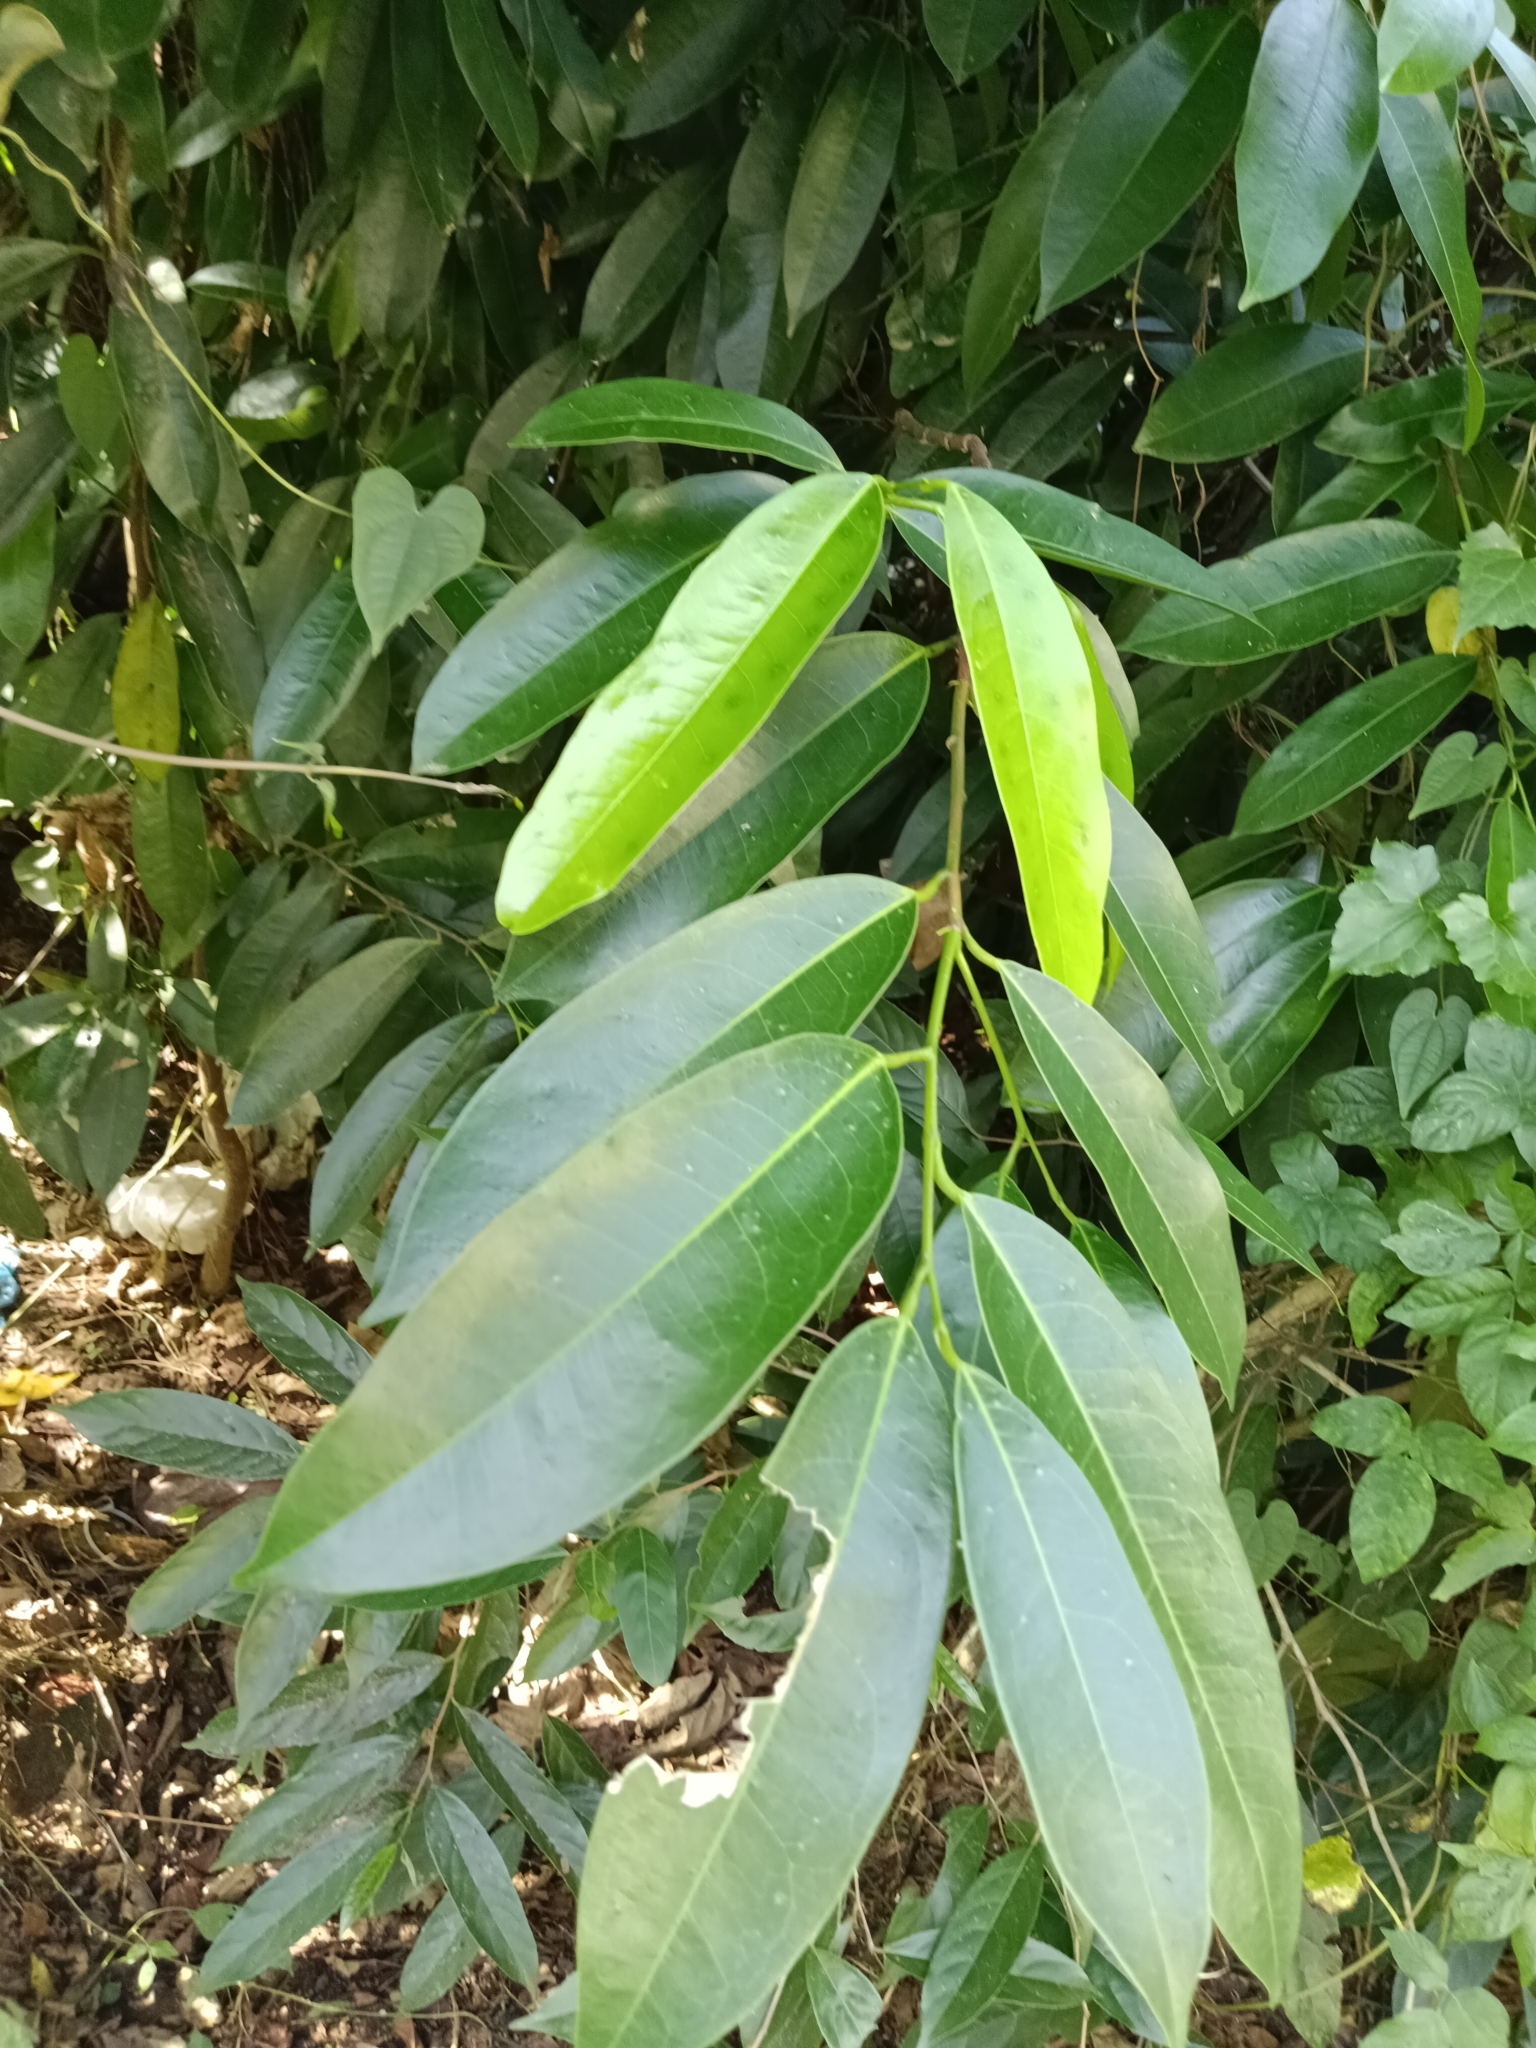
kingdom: Plantae
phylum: Tracheophyta
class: Magnoliopsida
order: Sapindales
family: Simaroubaceae
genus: Samadera
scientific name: Samadera indica
